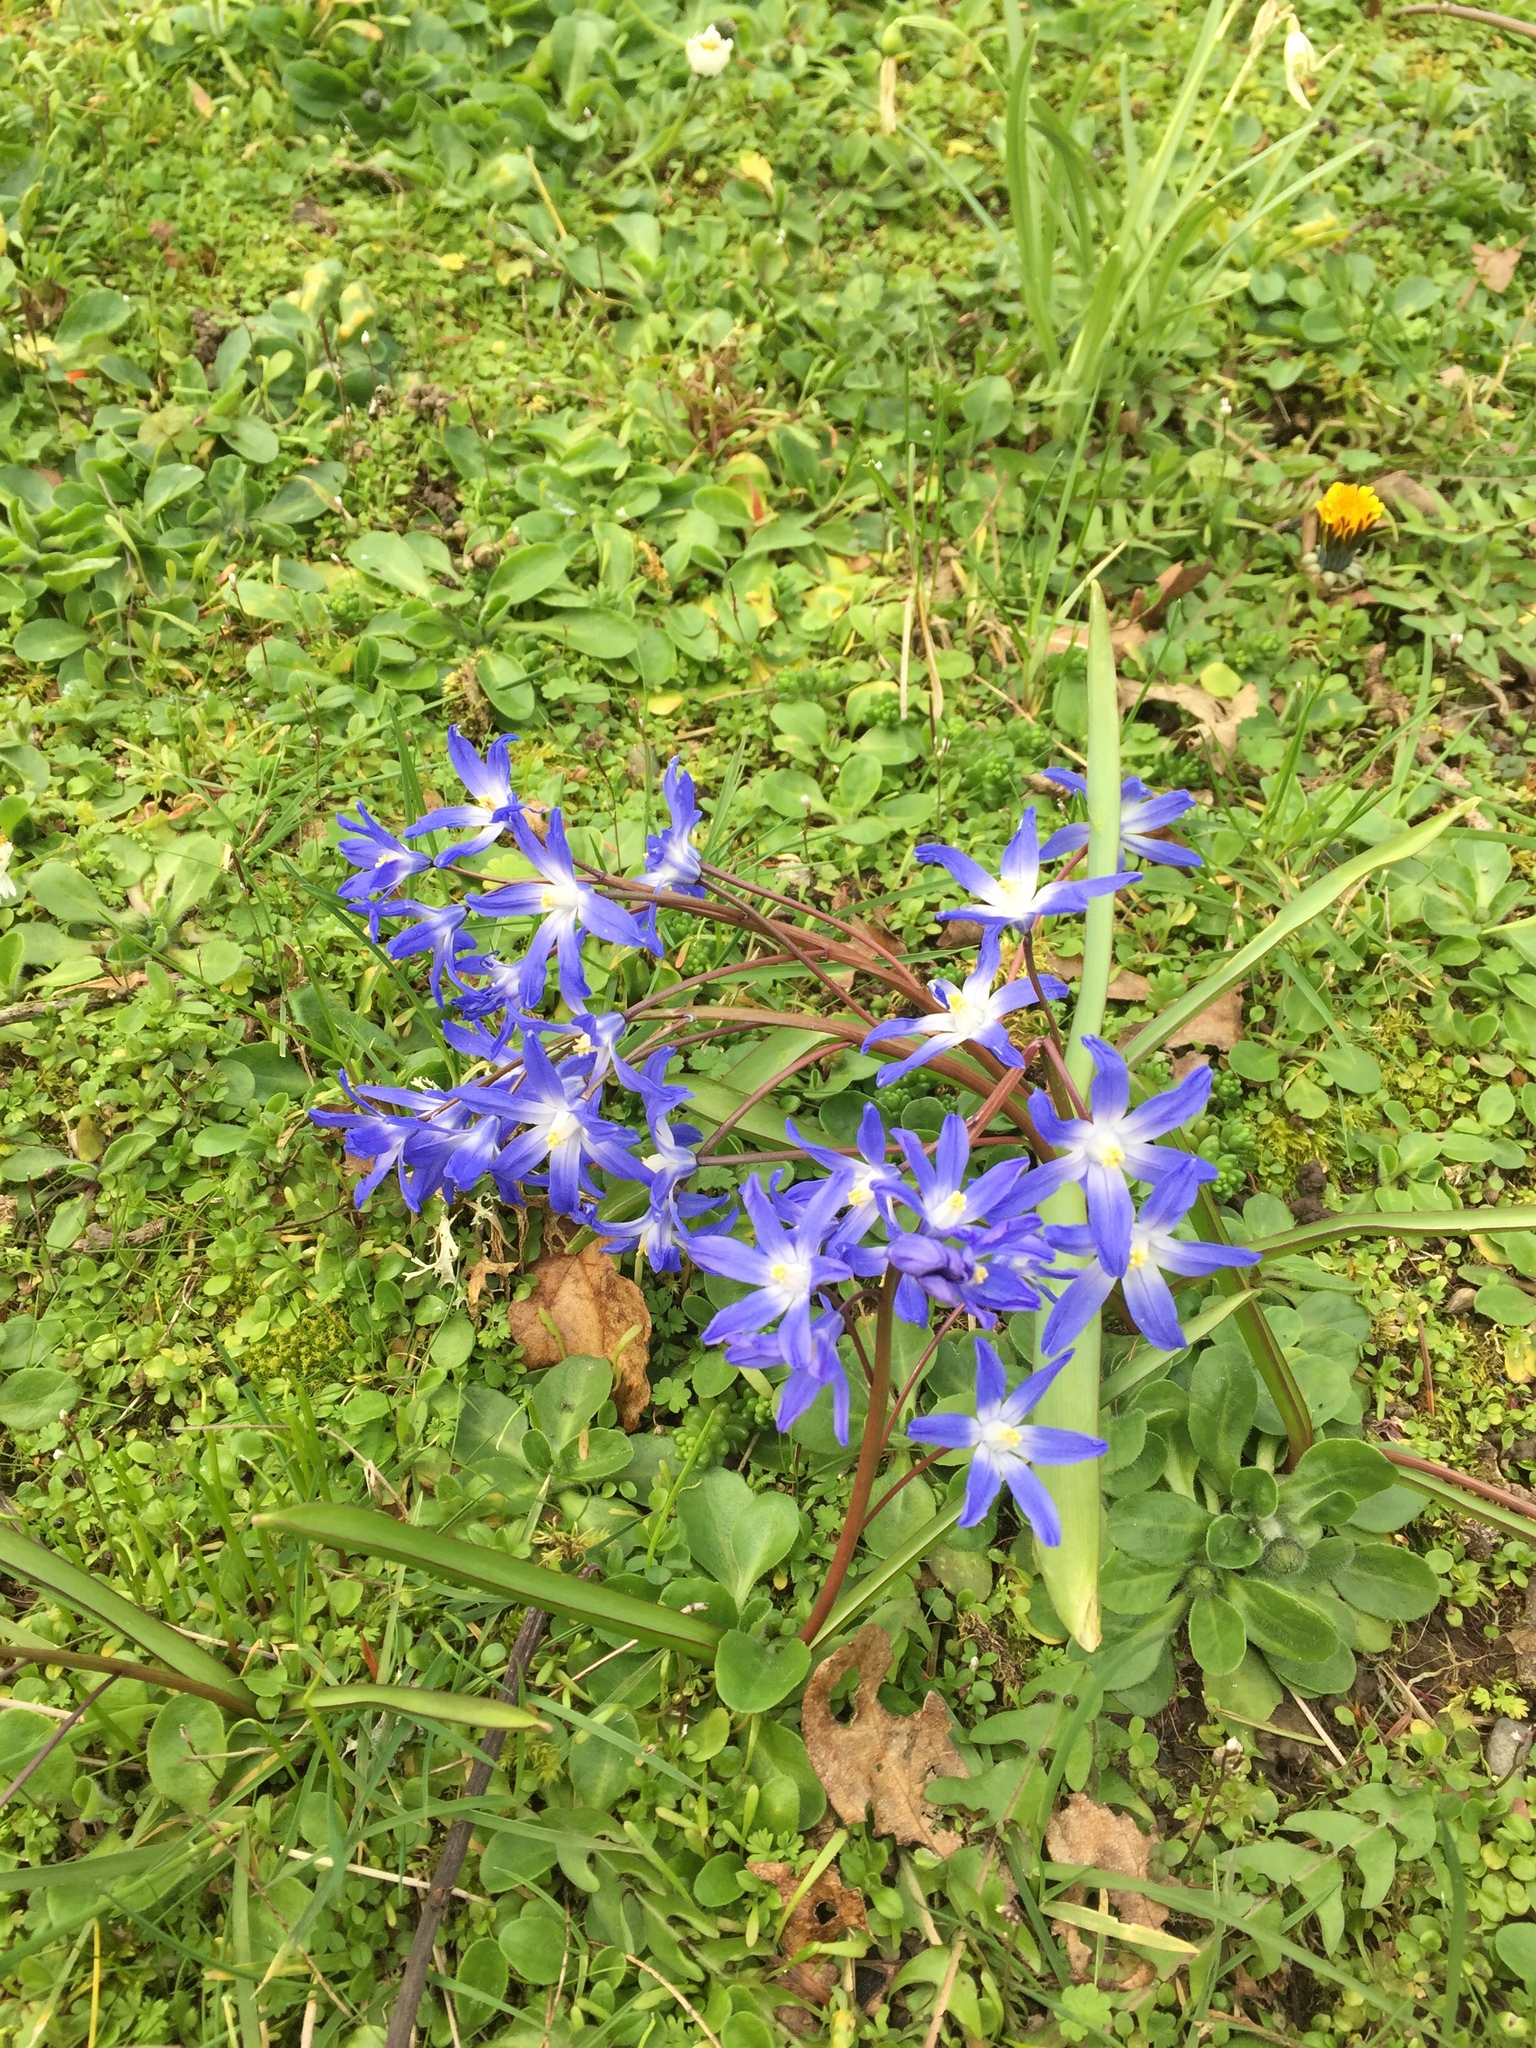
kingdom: Plantae
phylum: Tracheophyta
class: Liliopsida
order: Asparagales
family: Asparagaceae
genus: Scilla
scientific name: Scilla luciliae
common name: Boissier's glory-of-the-snow
